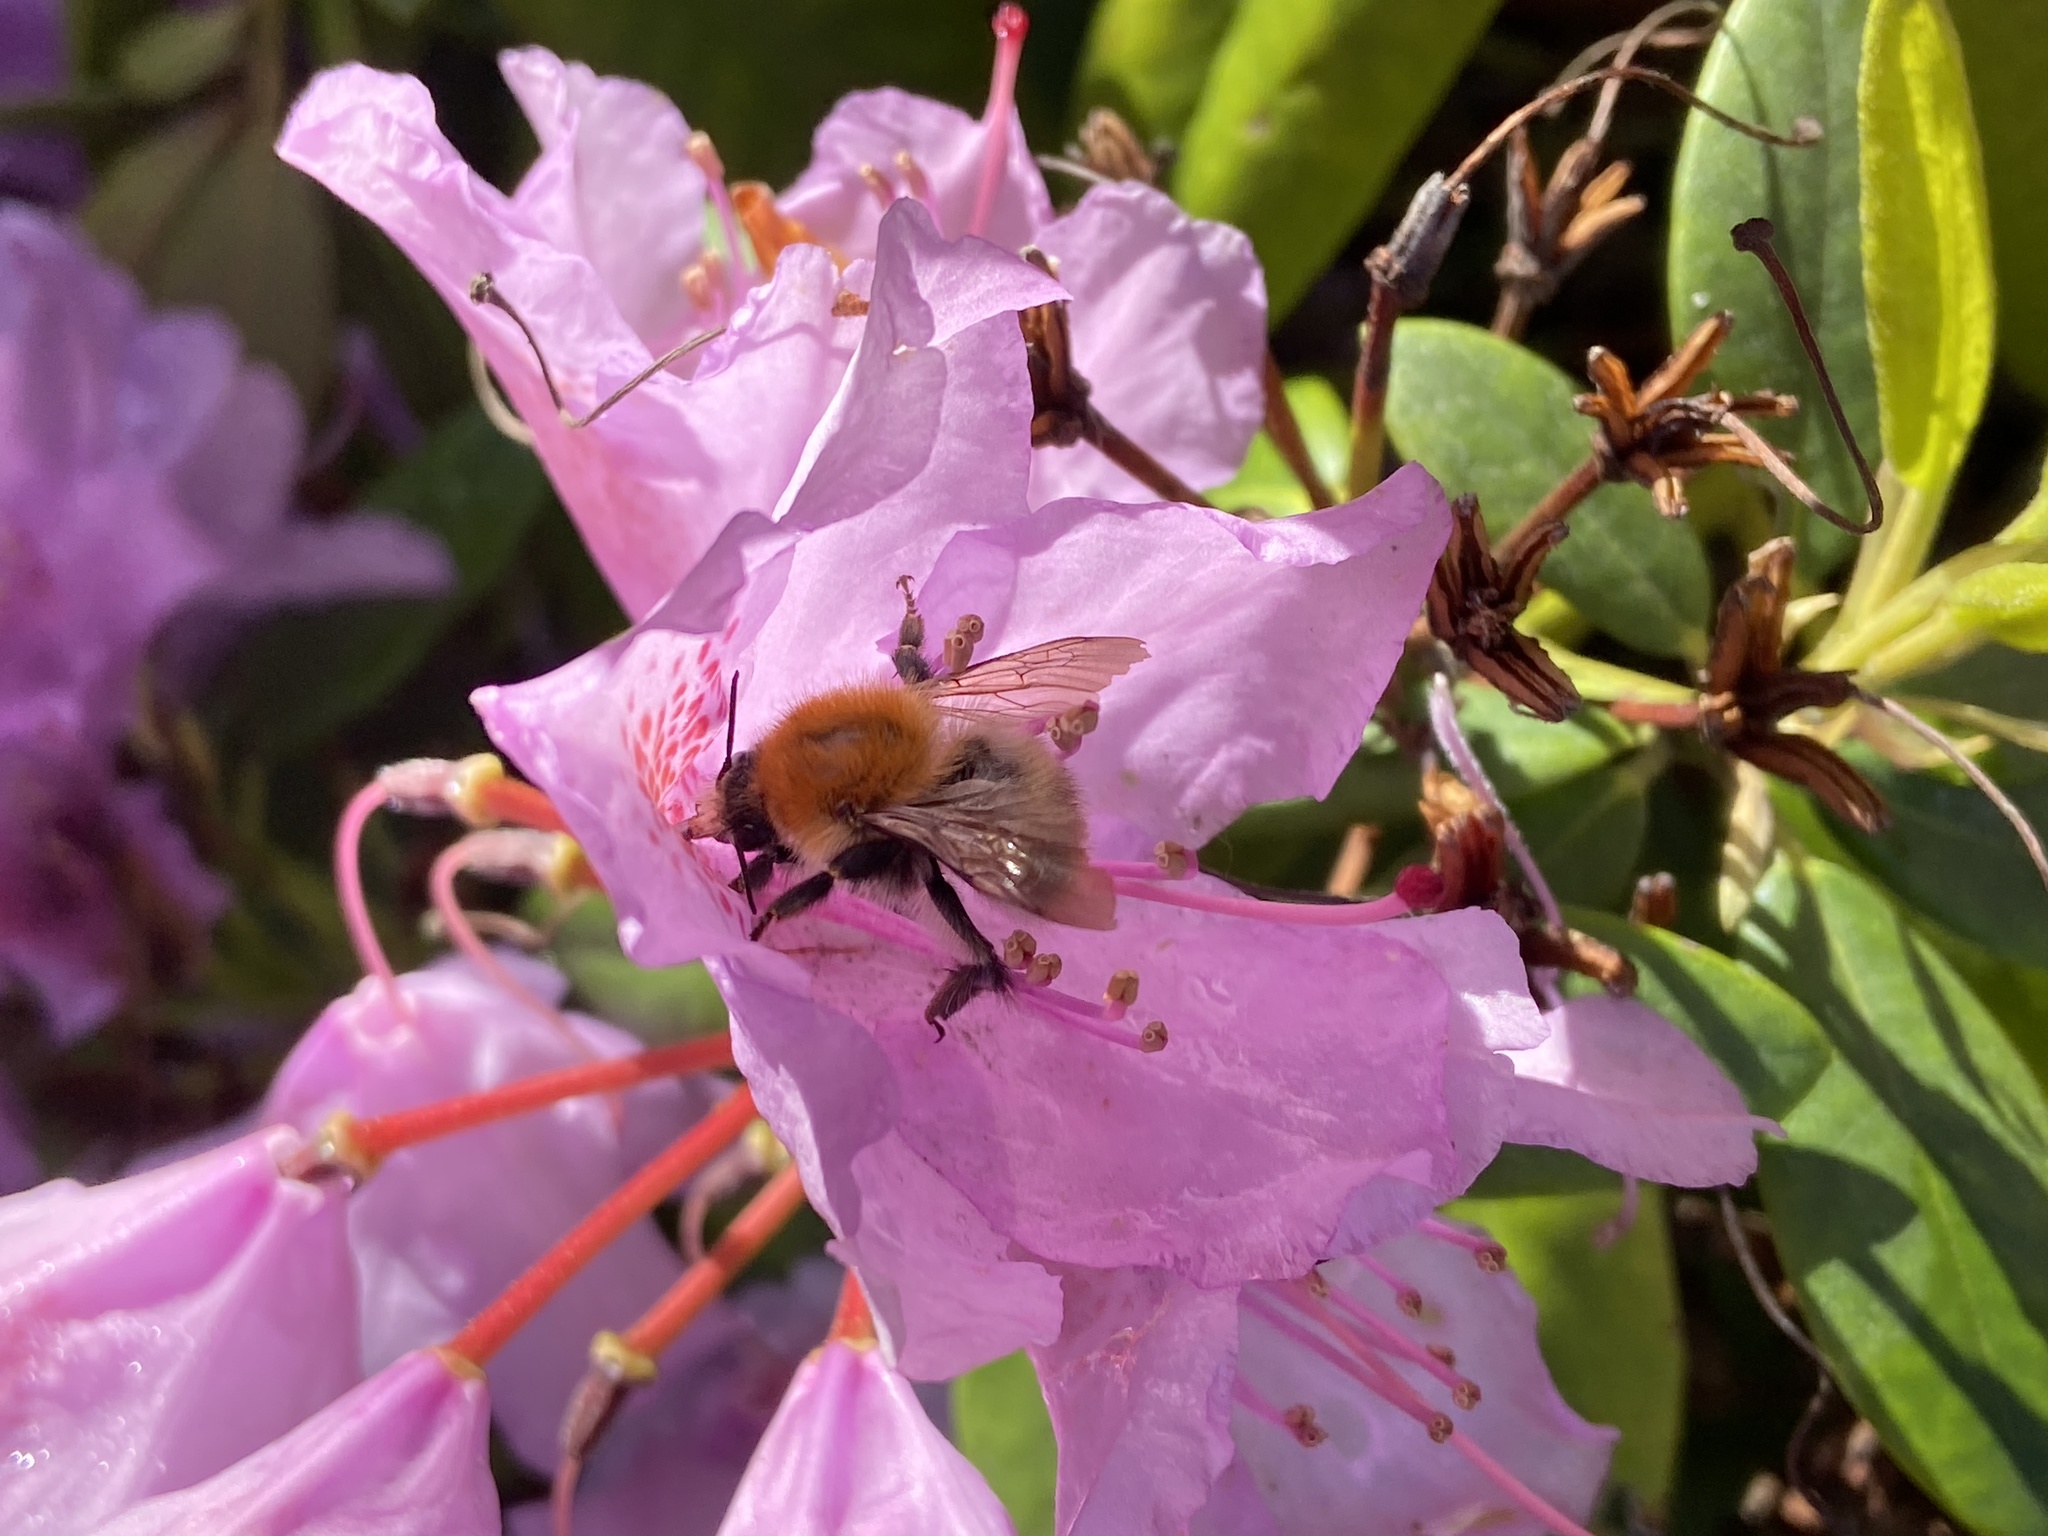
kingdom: Animalia
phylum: Arthropoda
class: Insecta
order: Hymenoptera
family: Apidae
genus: Bombus
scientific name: Bombus pascuorum
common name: Common carder bee
